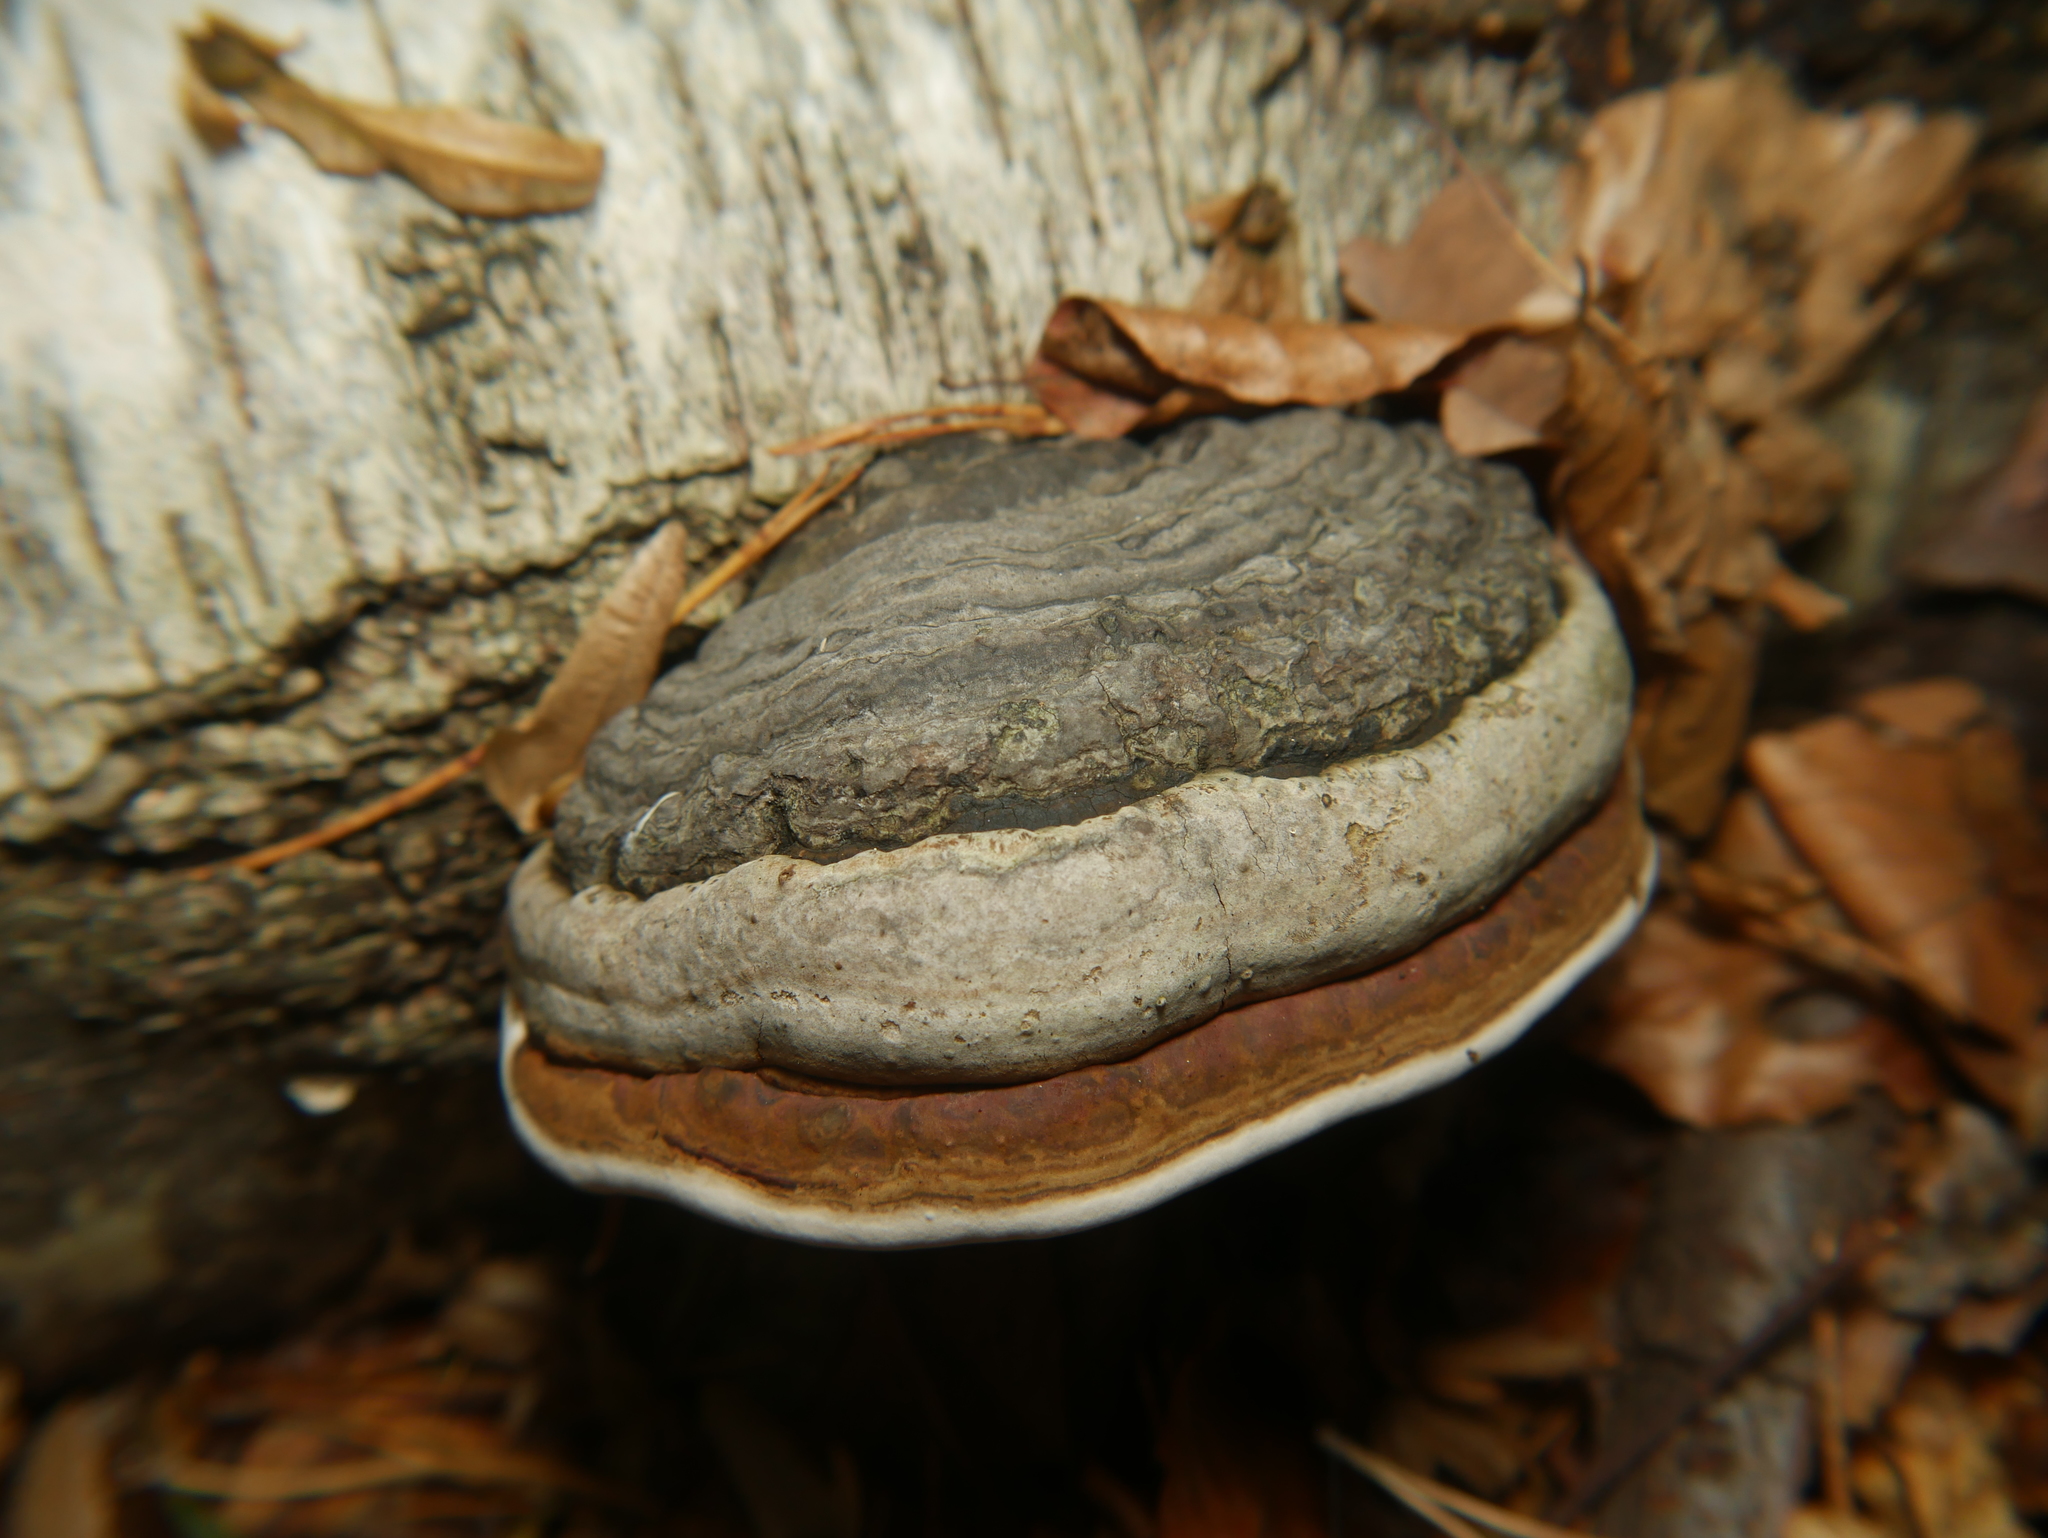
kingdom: Fungi
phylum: Basidiomycota
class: Agaricomycetes
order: Polyporales
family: Polyporaceae
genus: Fomes
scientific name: Fomes fomentarius
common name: Hoof fungus
